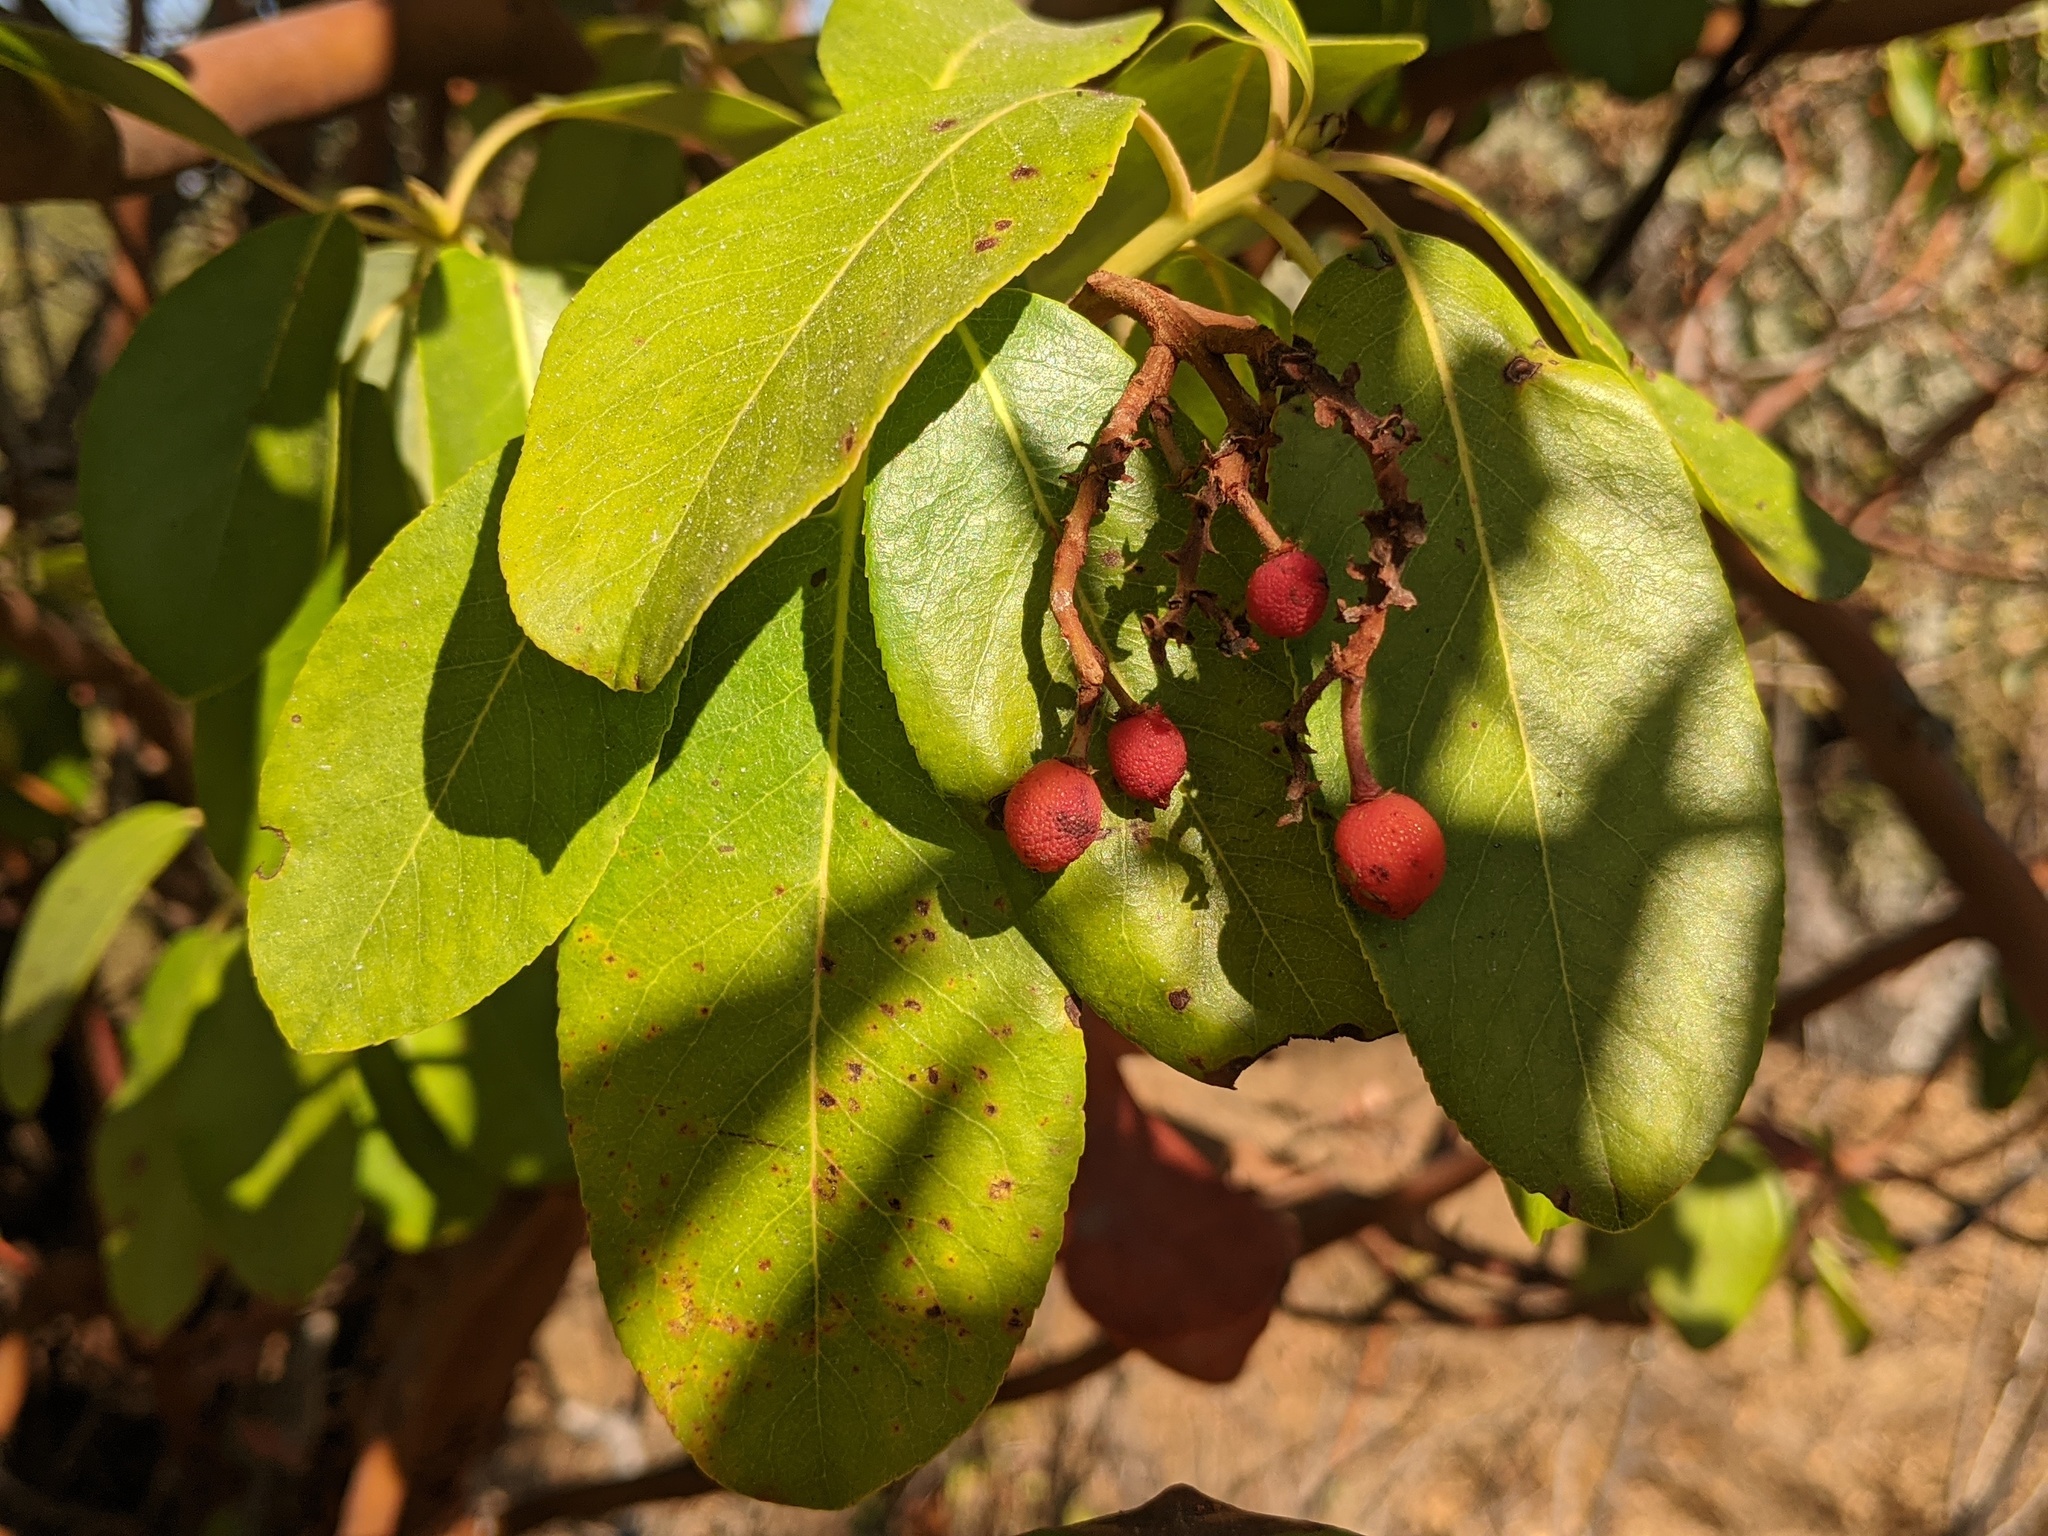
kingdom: Plantae
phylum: Tracheophyta
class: Magnoliopsida
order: Ericales
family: Ericaceae
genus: Arbutus
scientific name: Arbutus menziesii
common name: Pacific madrone
